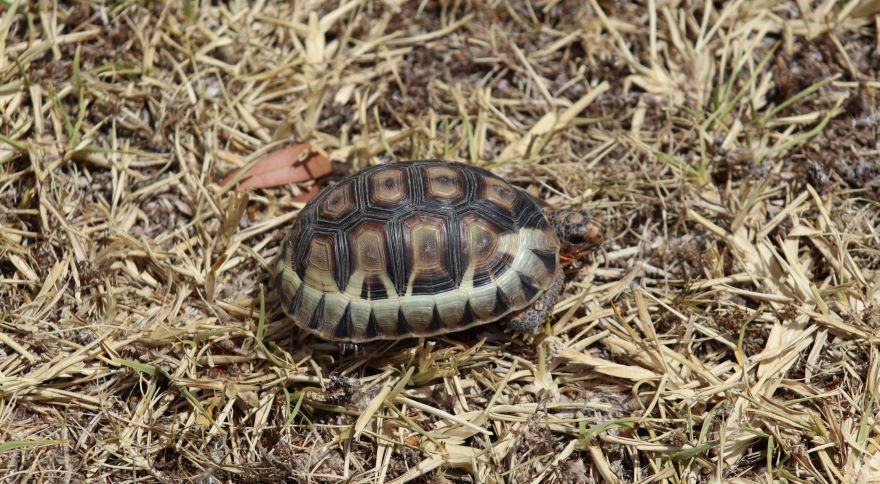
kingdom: Animalia
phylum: Chordata
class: Testudines
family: Testudinidae
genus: Chersina
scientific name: Chersina angulata
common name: South african bowsprit tortoise
